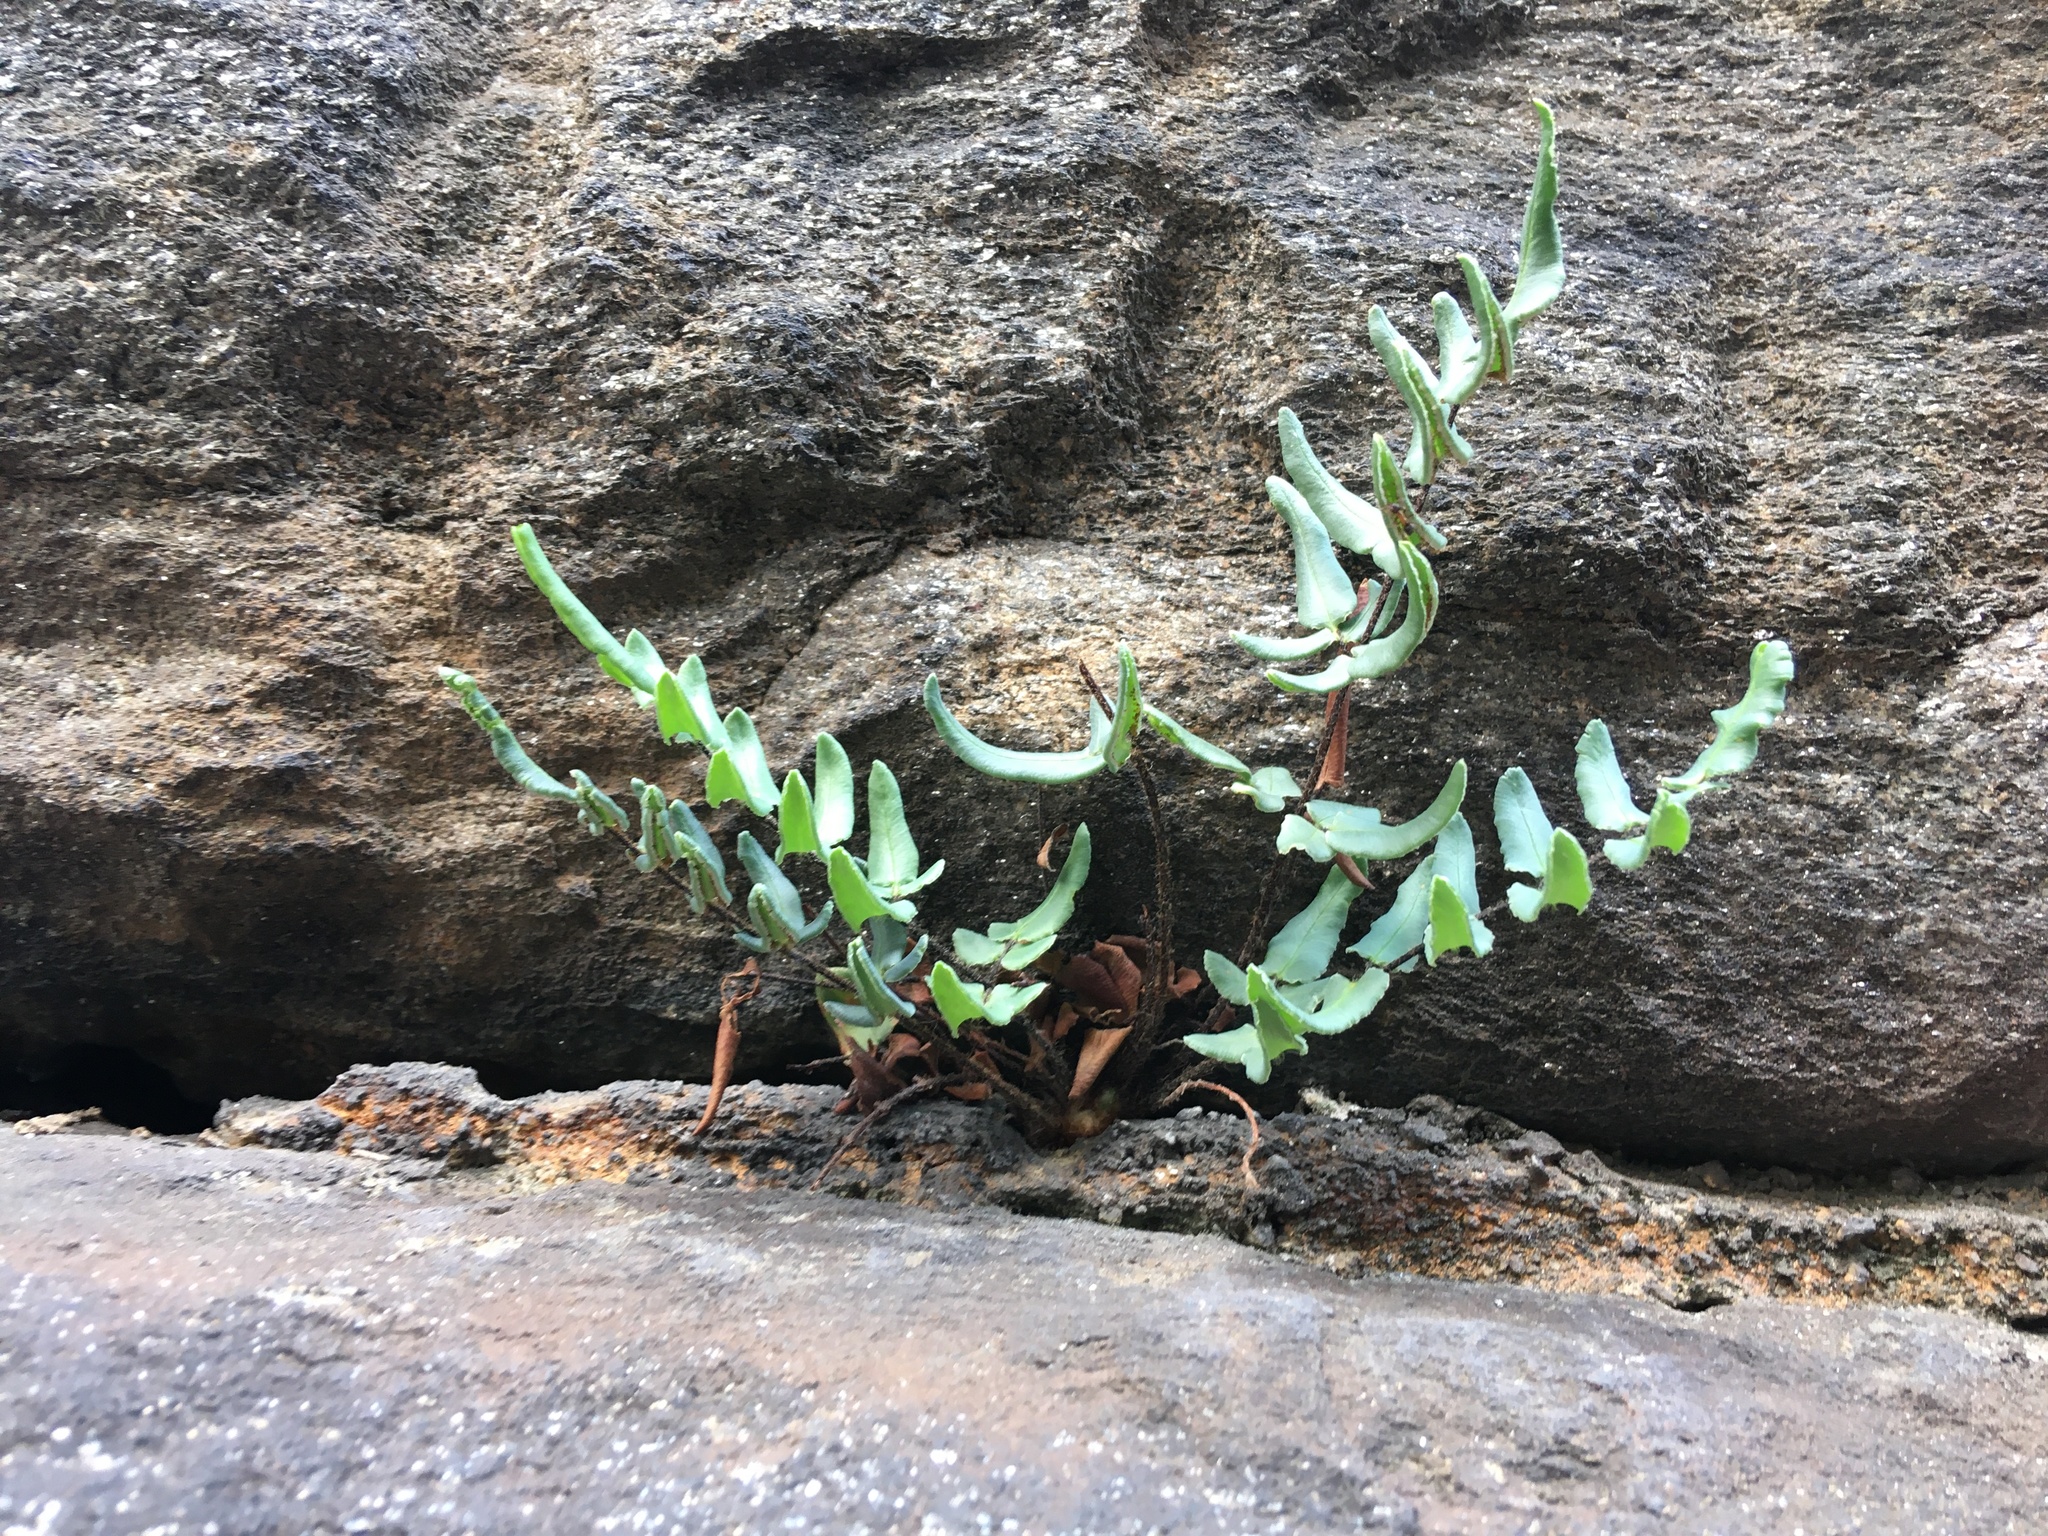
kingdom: Plantae
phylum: Tracheophyta
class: Polypodiopsida
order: Polypodiales
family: Pteridaceae
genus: Pellaea
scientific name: Pellaea atropurpurea
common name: Hairy cliffbrake
